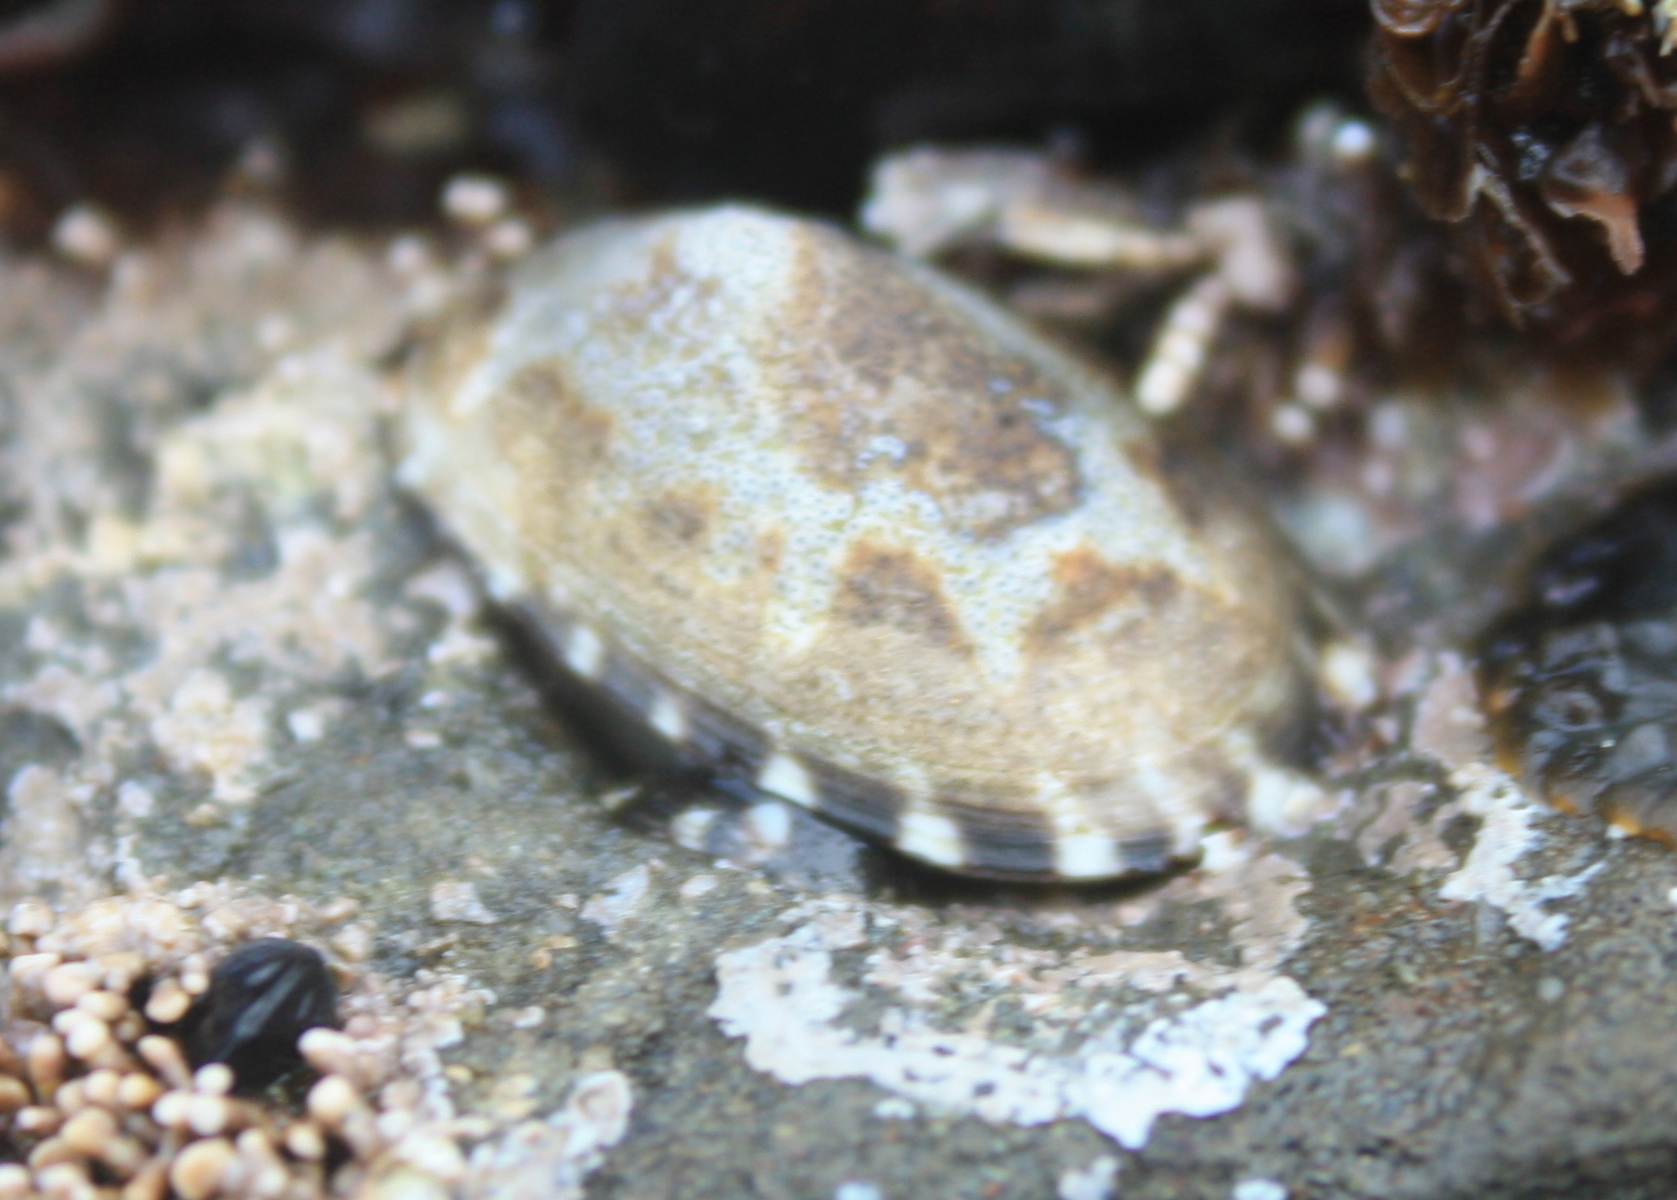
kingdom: Animalia
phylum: Mollusca
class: Gastropoda
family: Lottiidae
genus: Lottia
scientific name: Lottia pelta
